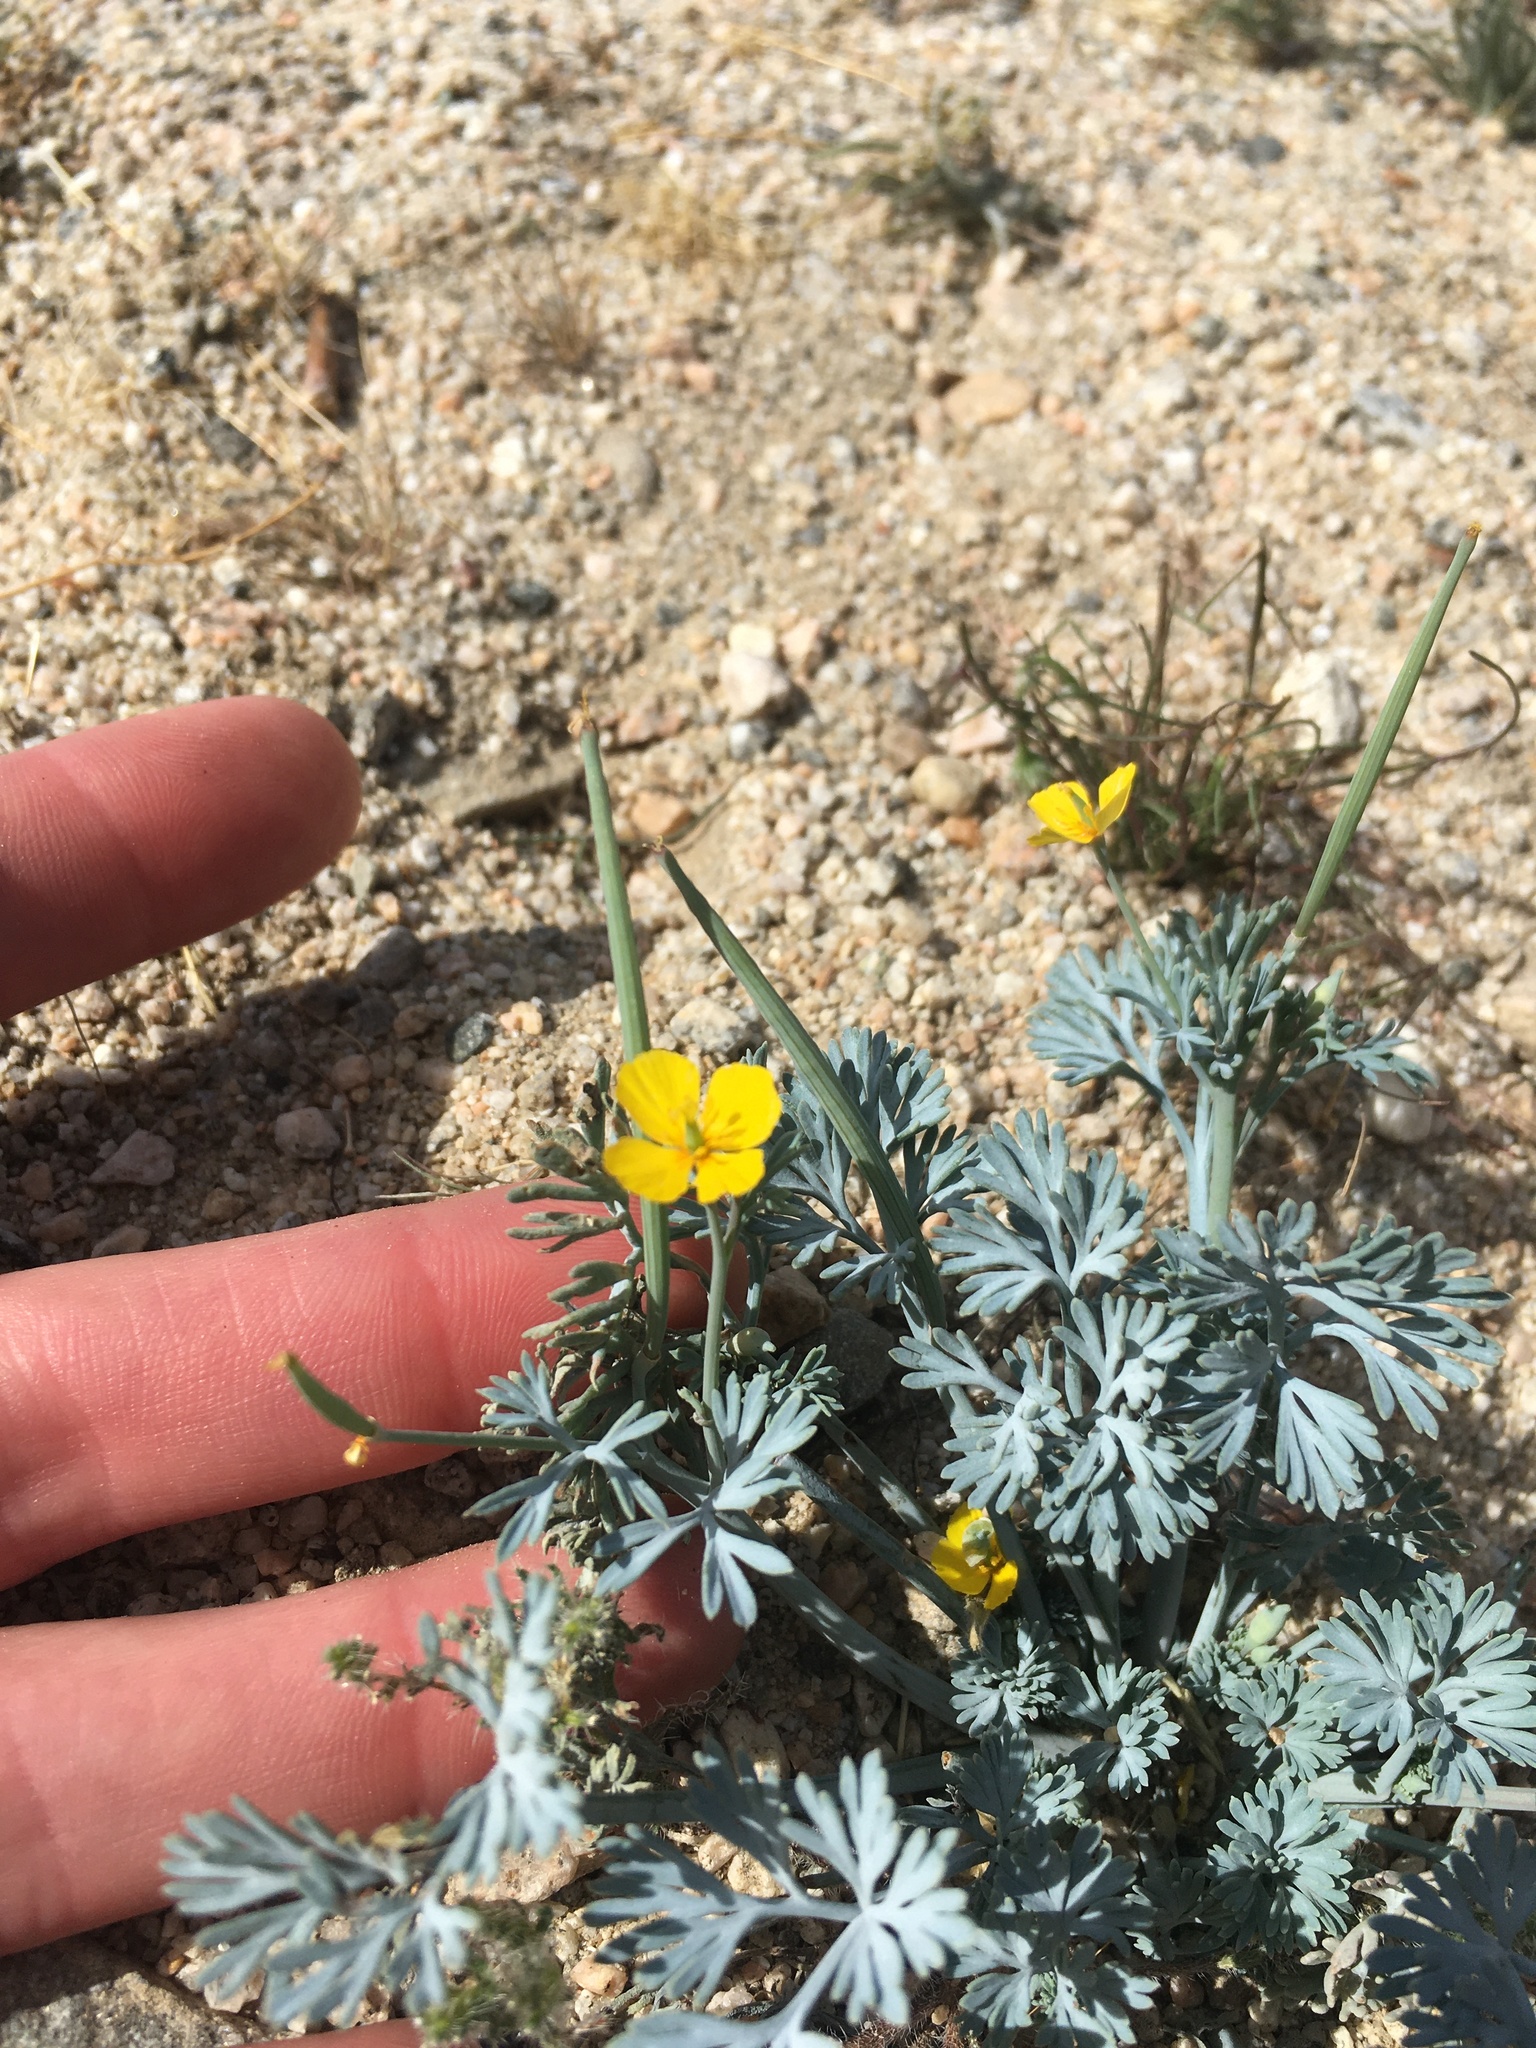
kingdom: Plantae
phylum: Tracheophyta
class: Magnoliopsida
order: Ranunculales
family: Papaveraceae
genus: Eschscholzia
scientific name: Eschscholzia minutiflora
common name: Small-flower california-poppy
